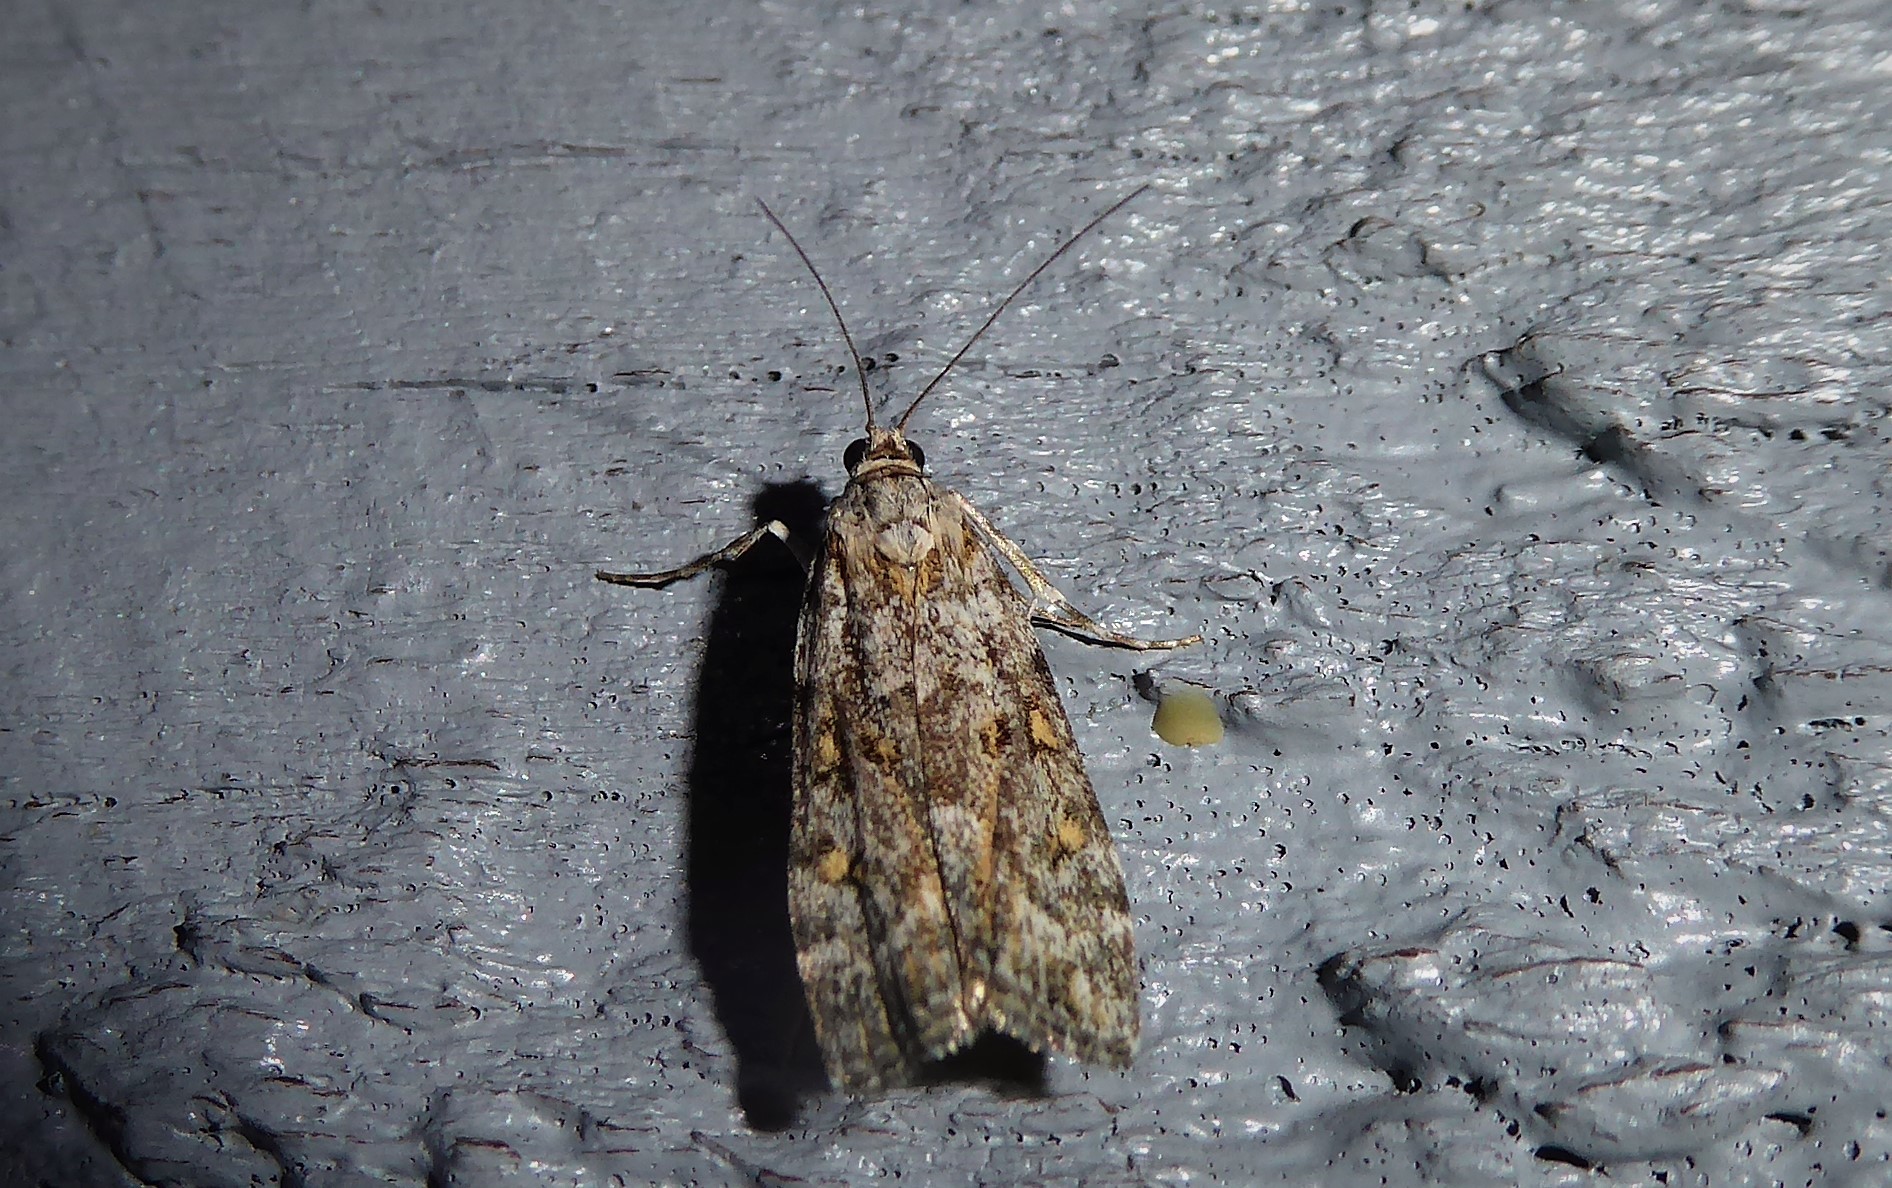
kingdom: Animalia
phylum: Arthropoda
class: Insecta
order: Lepidoptera
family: Crambidae
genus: Eudonia
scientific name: Eudonia diphtheralis
